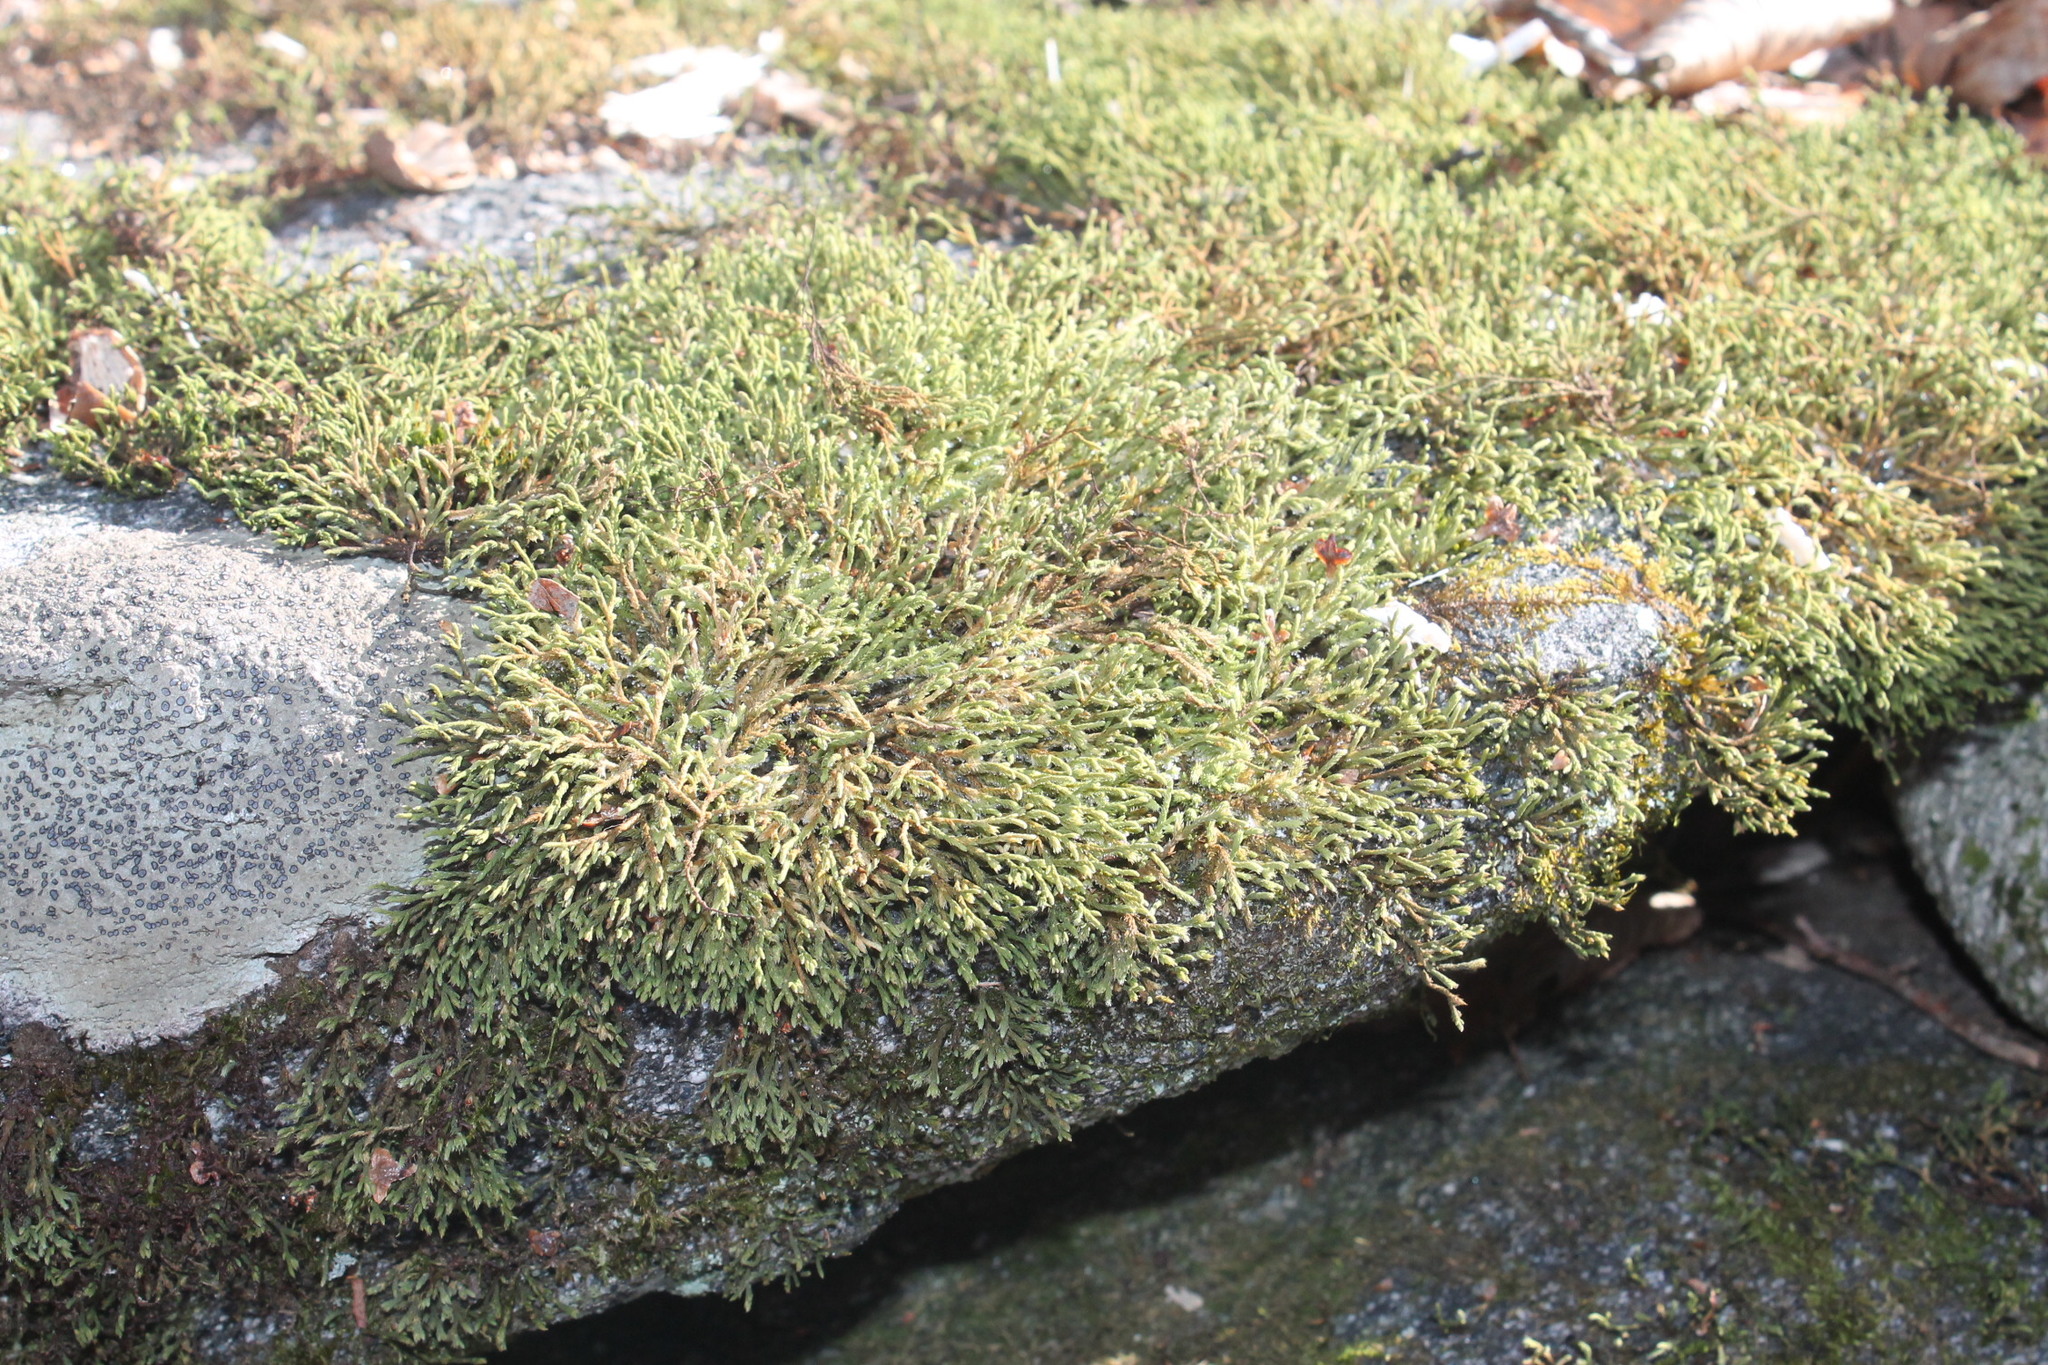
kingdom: Plantae
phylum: Bryophyta
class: Bryopsida
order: Hedwigiales
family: Hedwigiaceae
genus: Hedwigia
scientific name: Hedwigia ciliata
